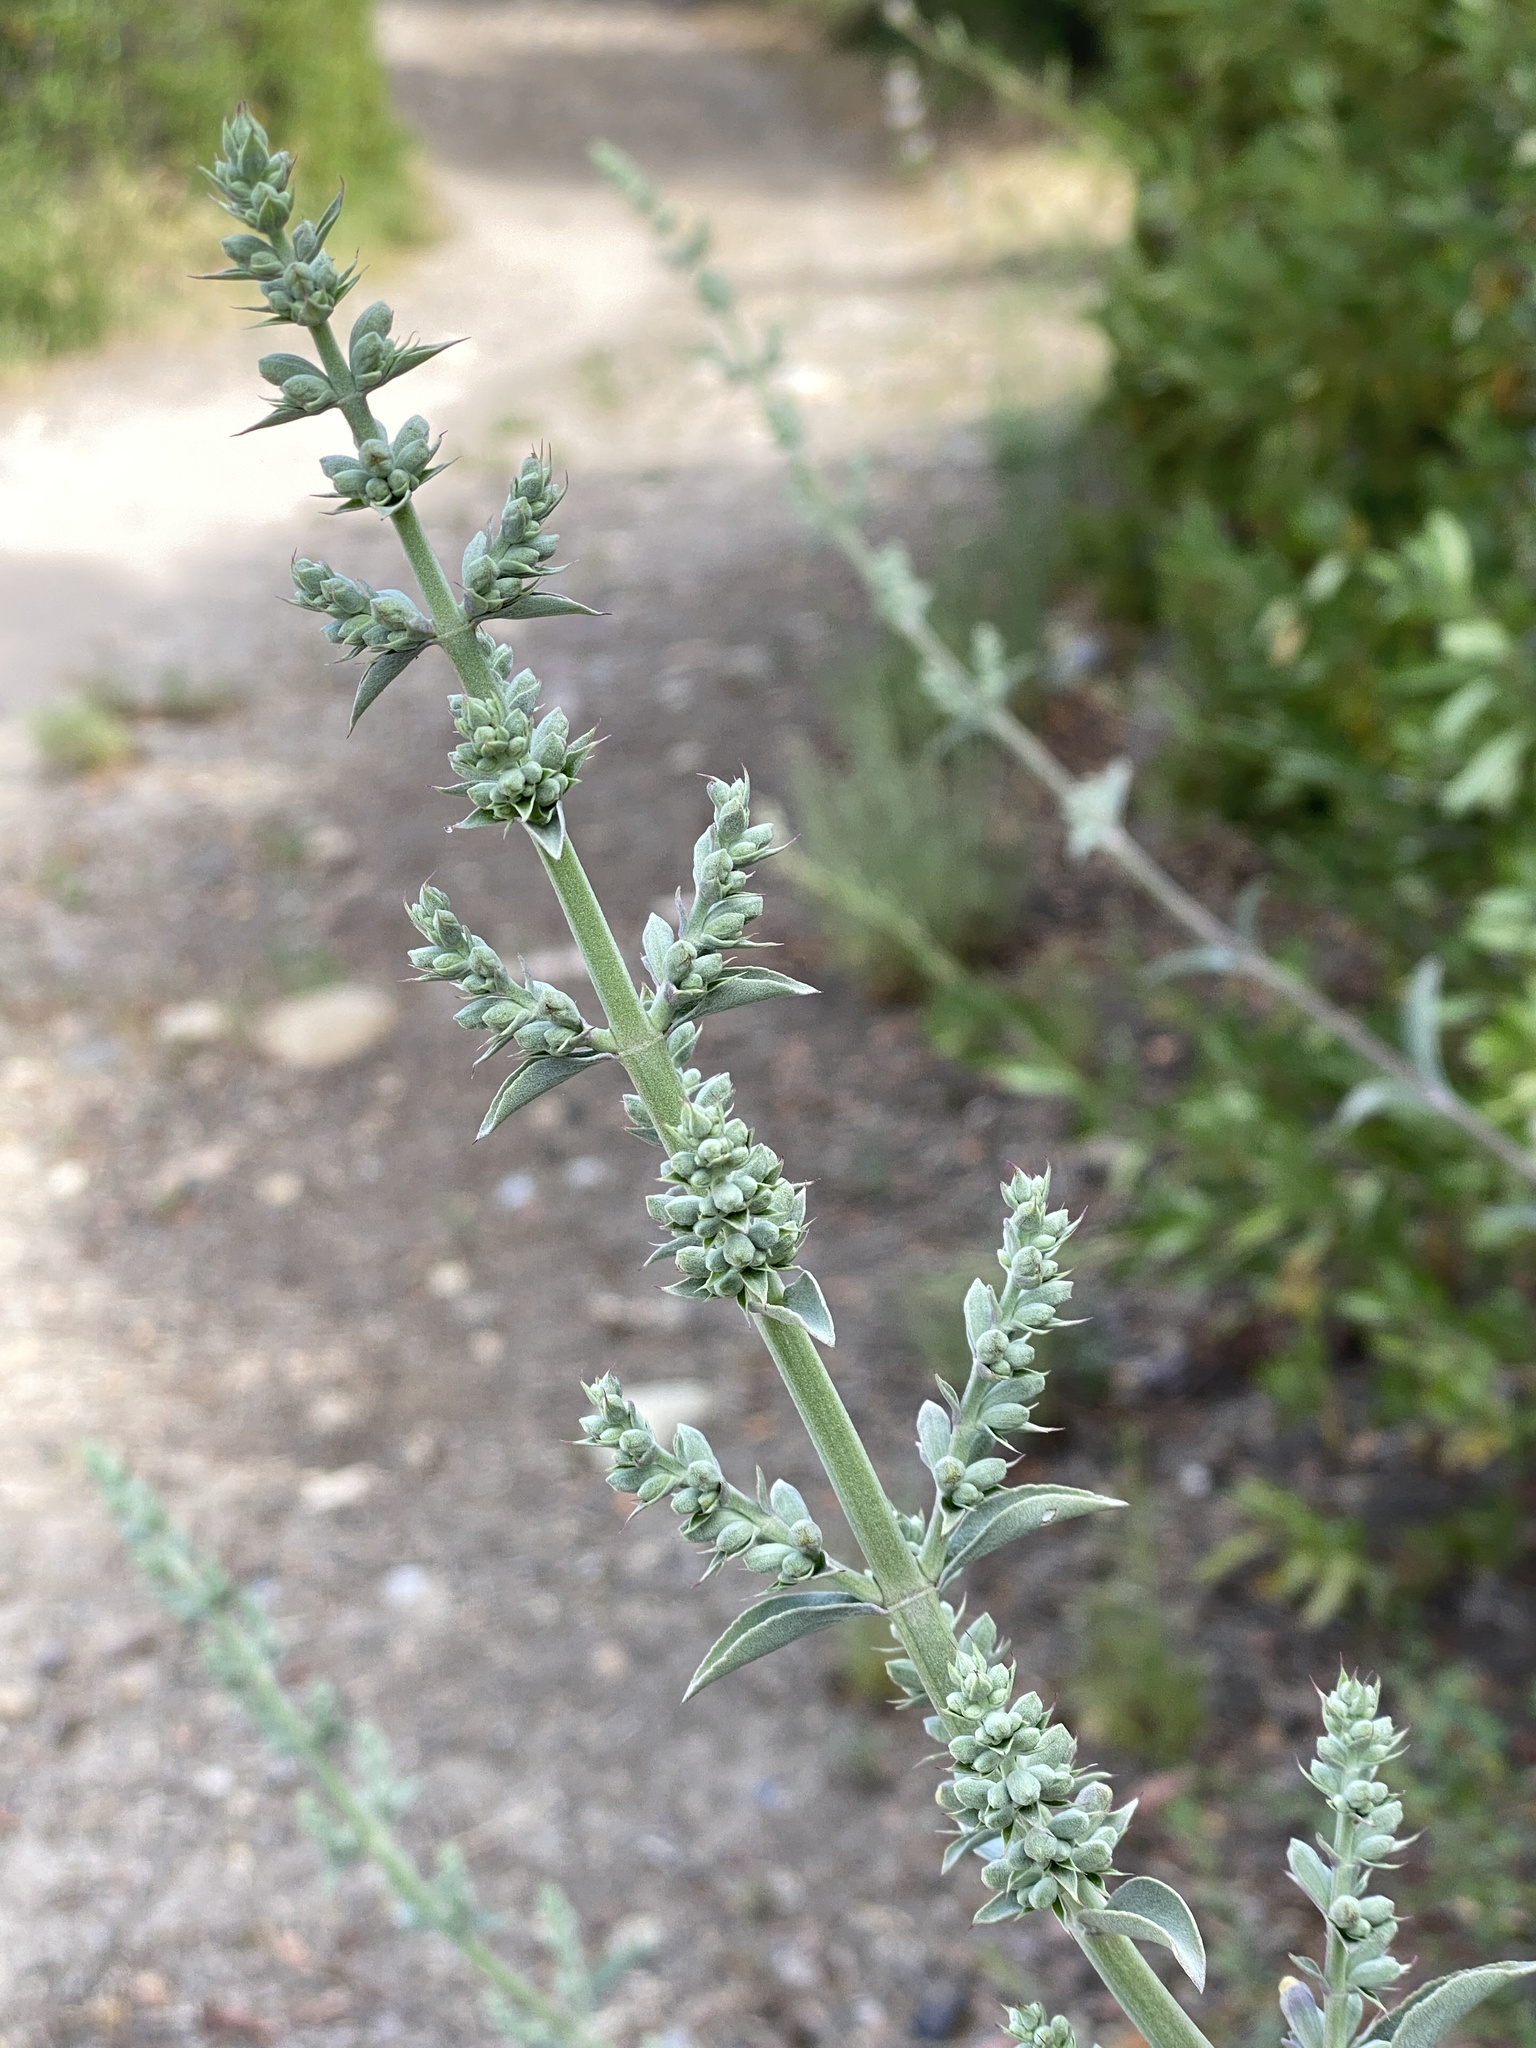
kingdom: Plantae
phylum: Tracheophyta
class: Magnoliopsida
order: Lamiales
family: Lamiaceae
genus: Salvia
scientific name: Salvia apiana
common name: White sage
